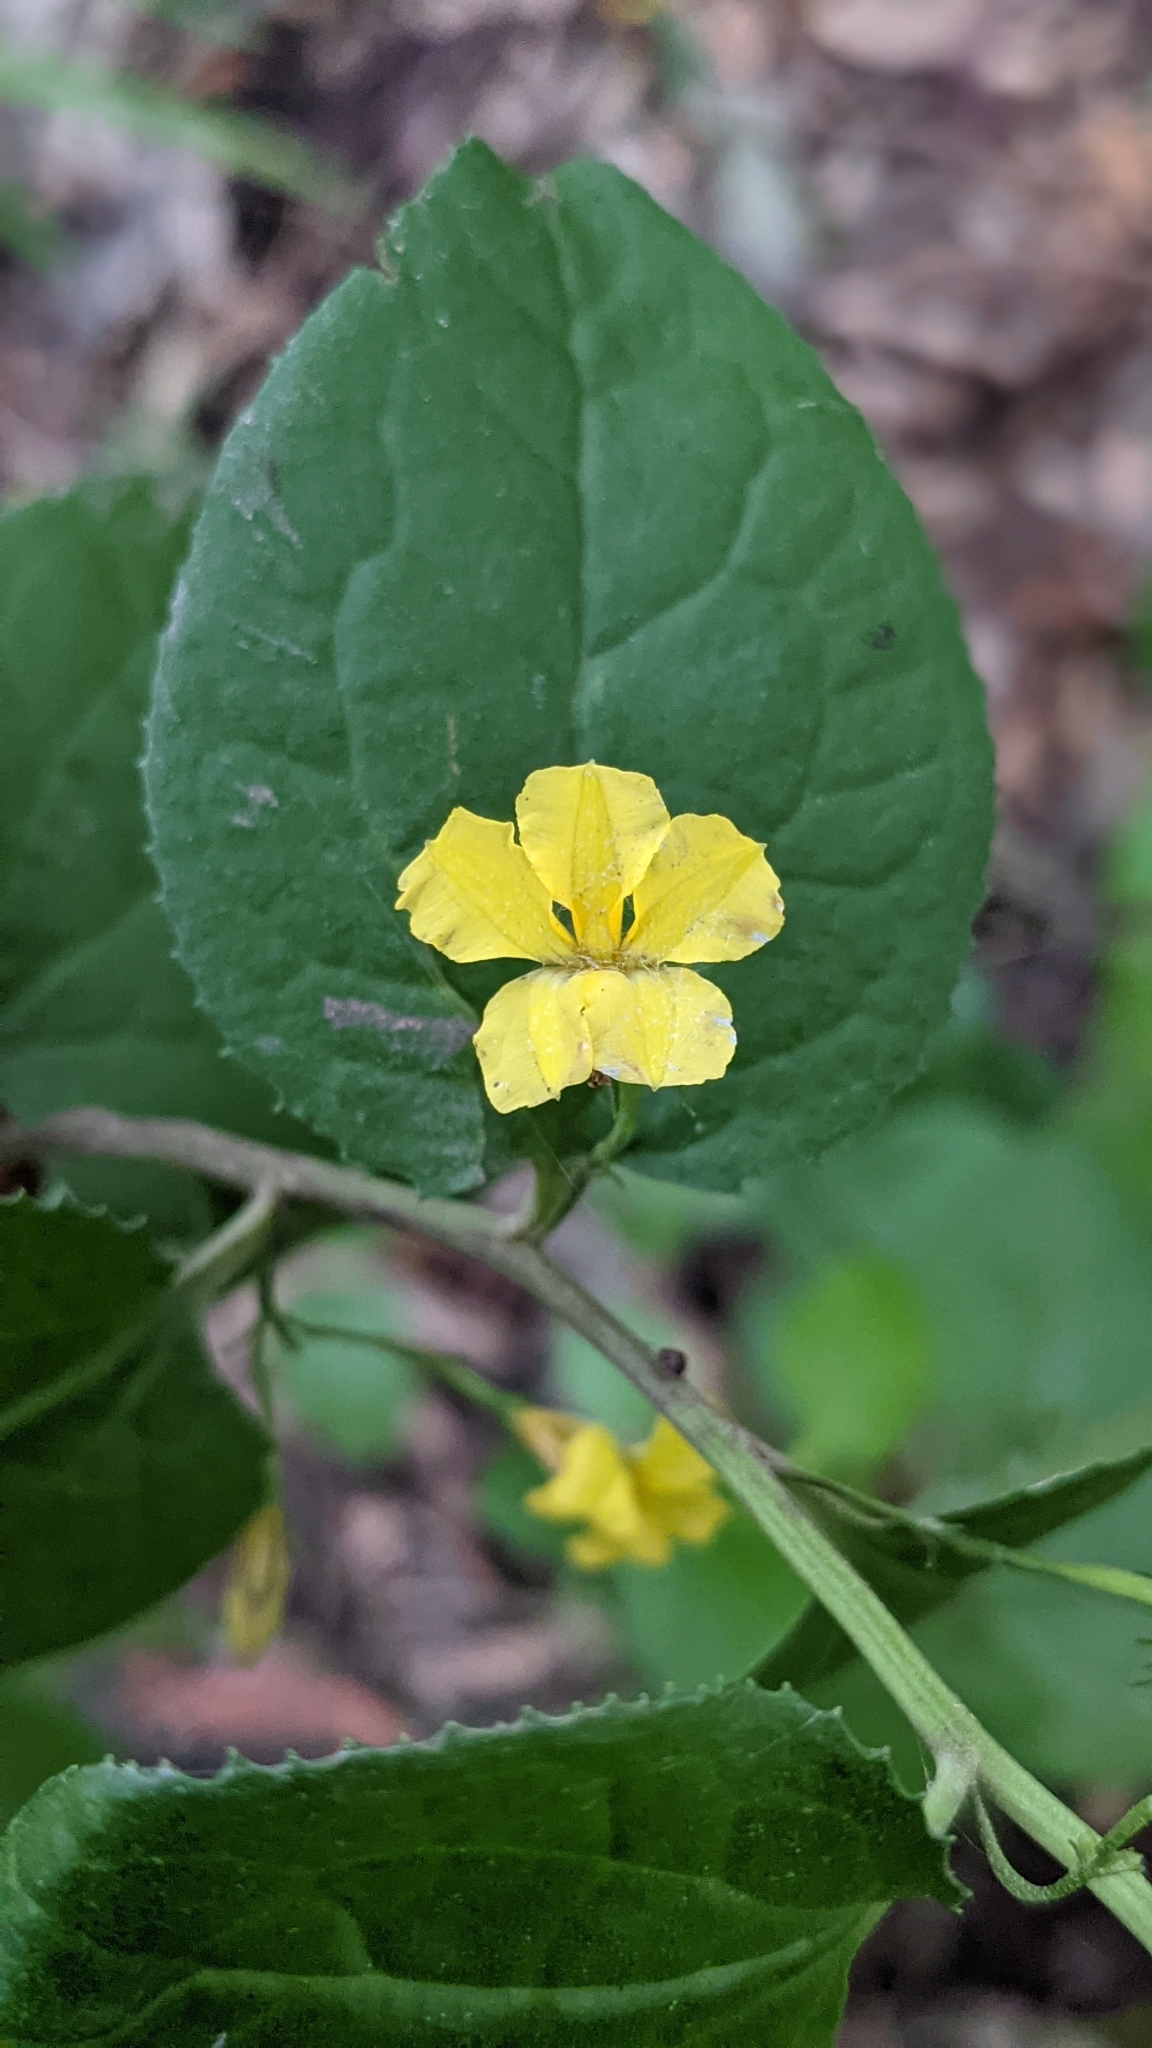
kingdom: Plantae
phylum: Tracheophyta
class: Magnoliopsida
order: Asterales
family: Goodeniaceae
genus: Goodenia
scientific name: Goodenia ovata
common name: Hop goodenia
